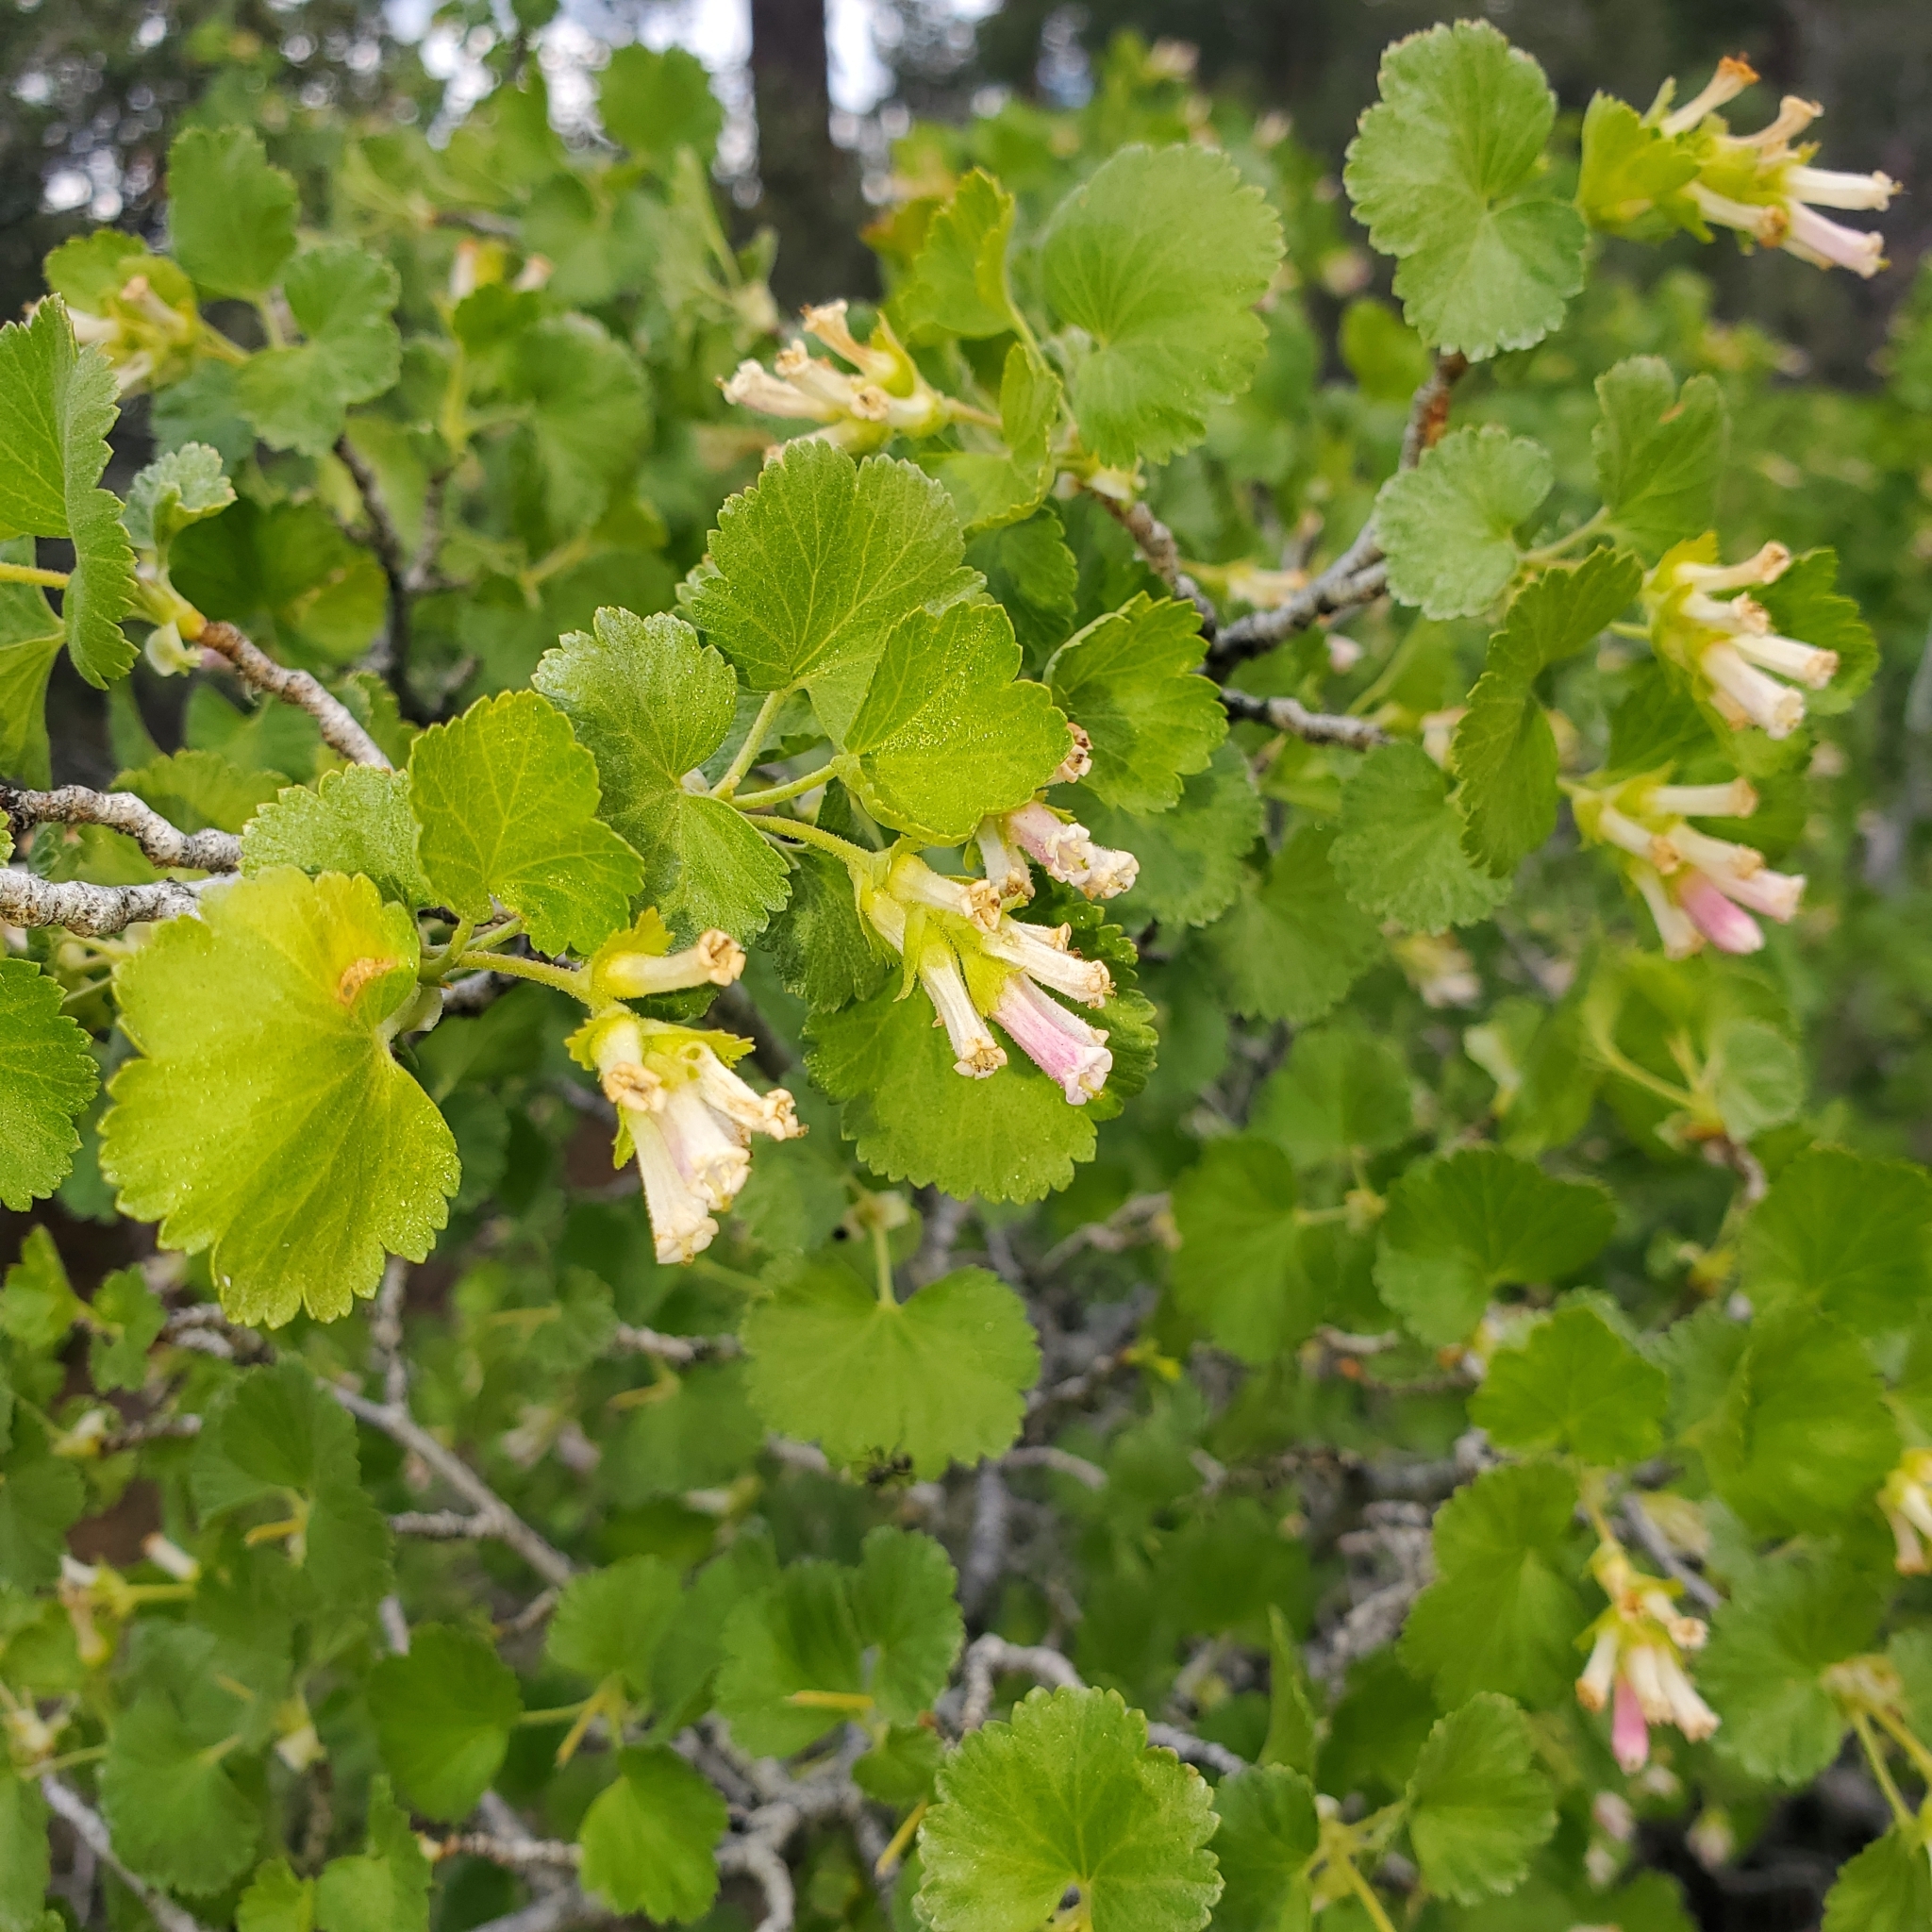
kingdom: Plantae
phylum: Tracheophyta
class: Magnoliopsida
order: Saxifragales
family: Grossulariaceae
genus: Ribes
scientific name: Ribes cereum
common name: Wax currant
